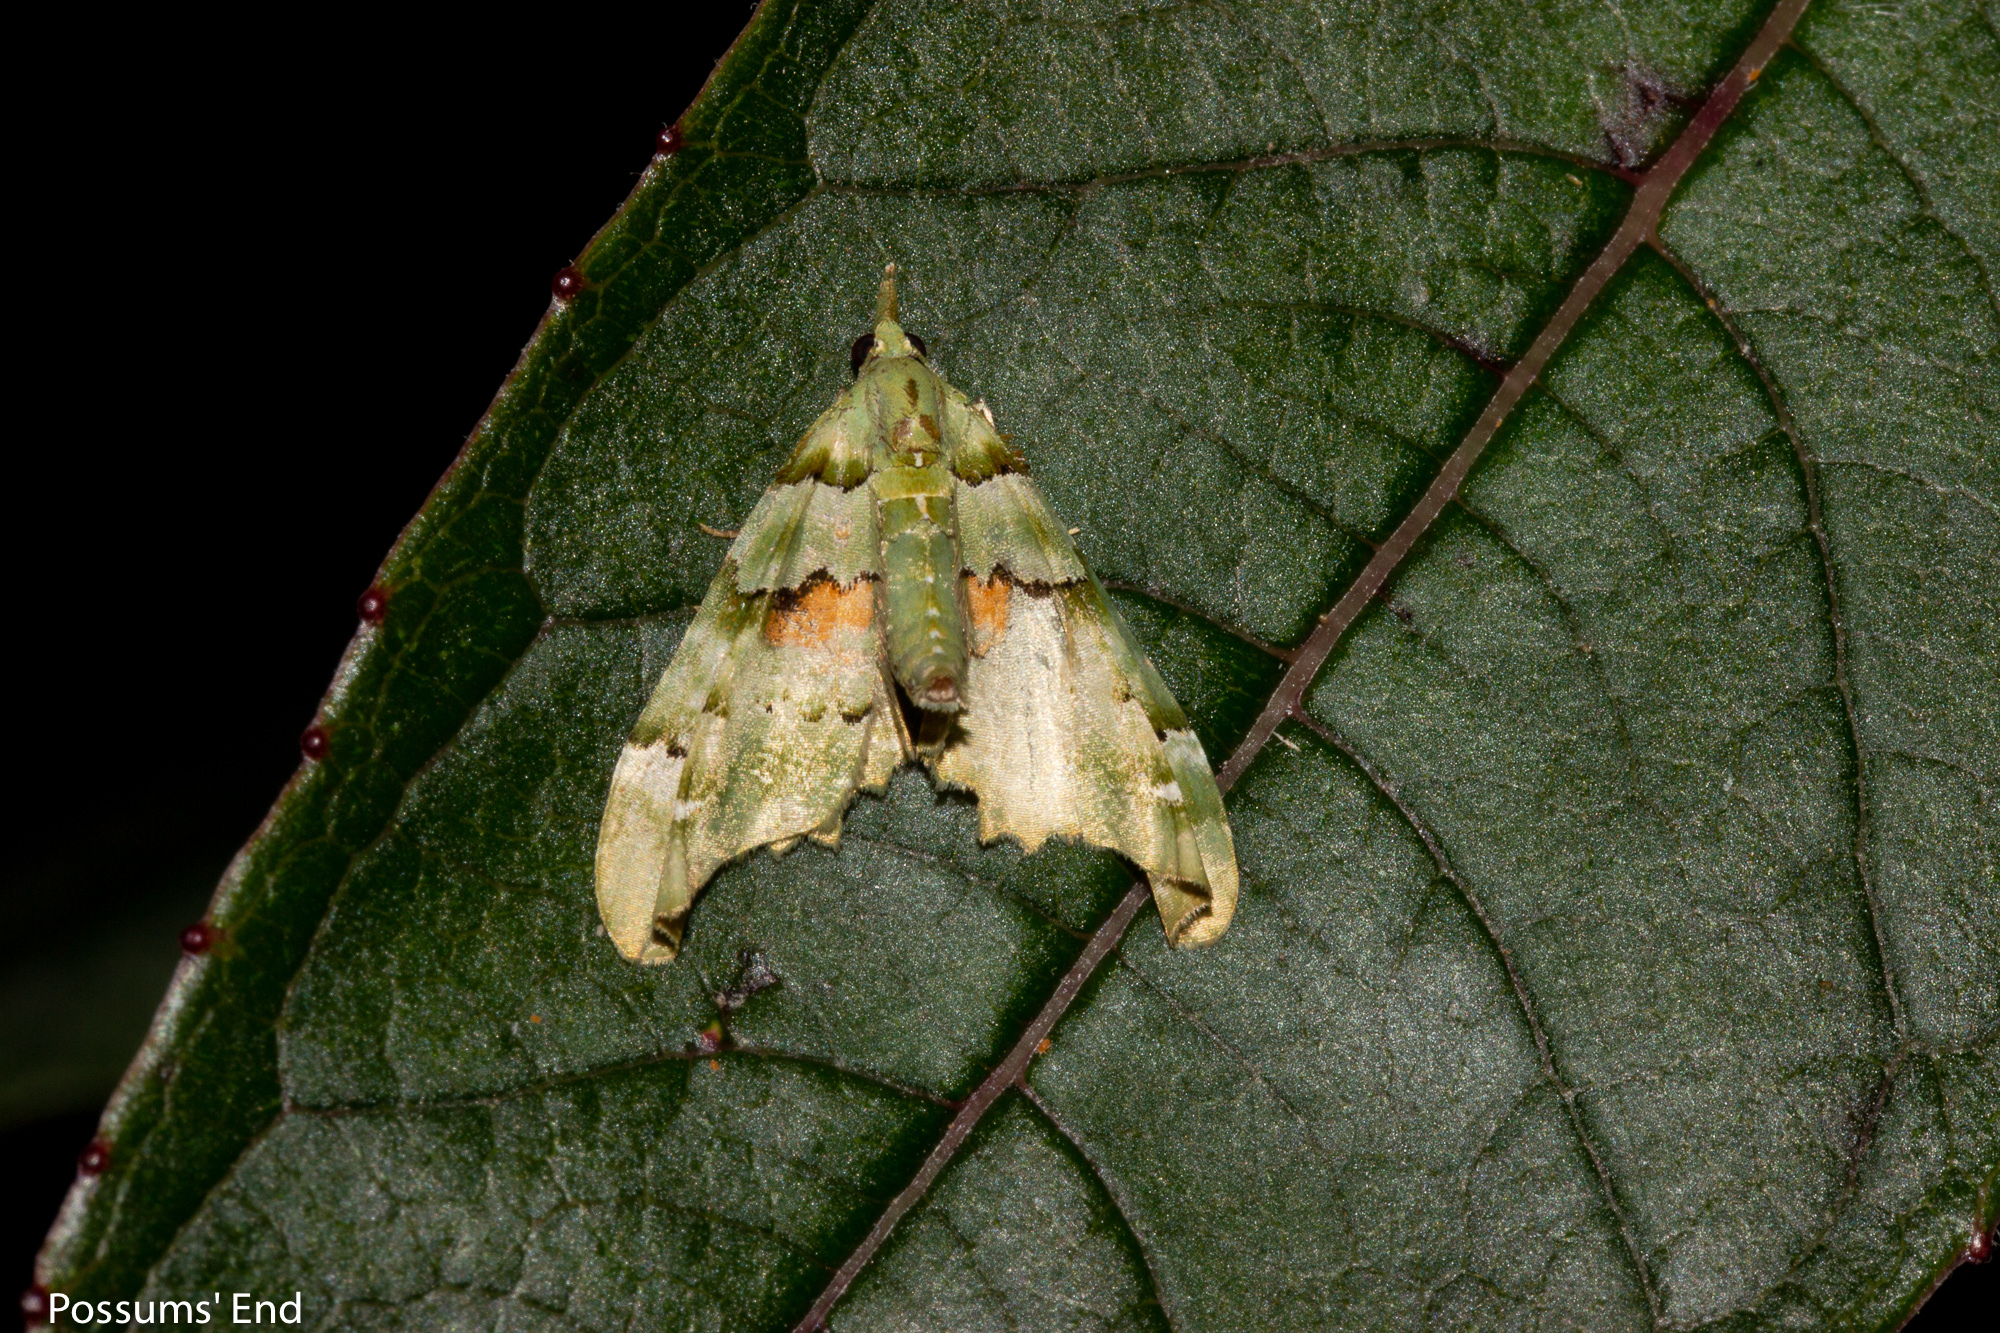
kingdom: Animalia
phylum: Arthropoda
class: Insecta
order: Lepidoptera
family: Geometridae
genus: Elvia
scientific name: Elvia glaucata
